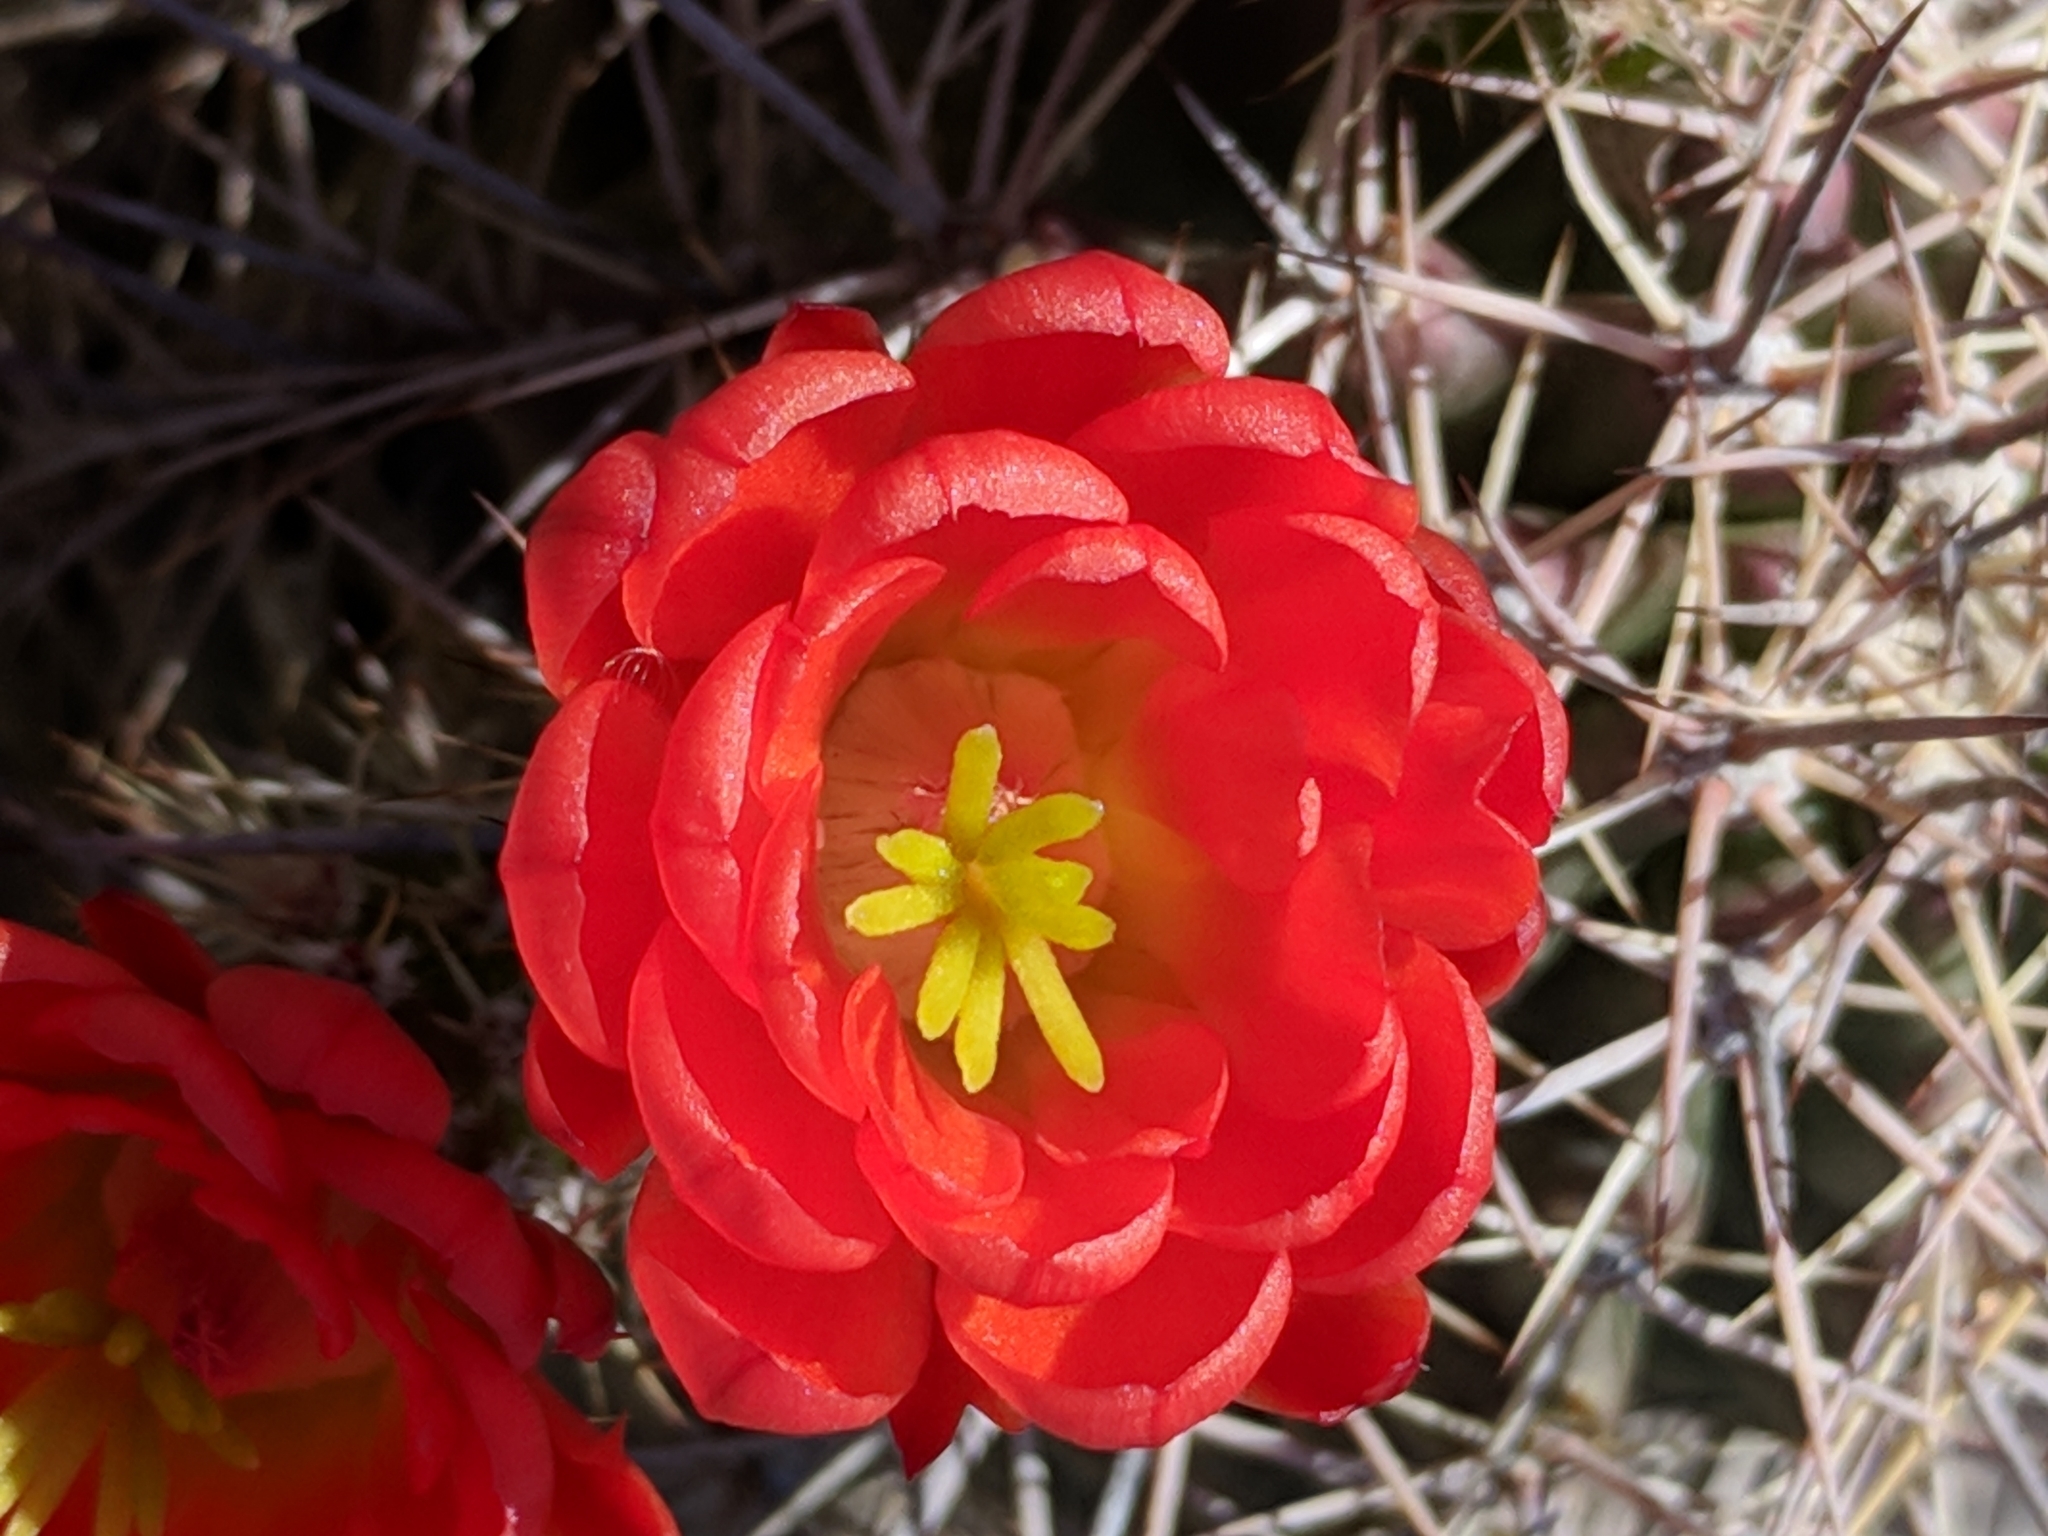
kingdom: Plantae
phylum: Tracheophyta
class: Magnoliopsida
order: Caryophyllales
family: Cactaceae
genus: Echinocereus
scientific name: Echinocereus coccineus
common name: Scarlet hedgehog cactus
